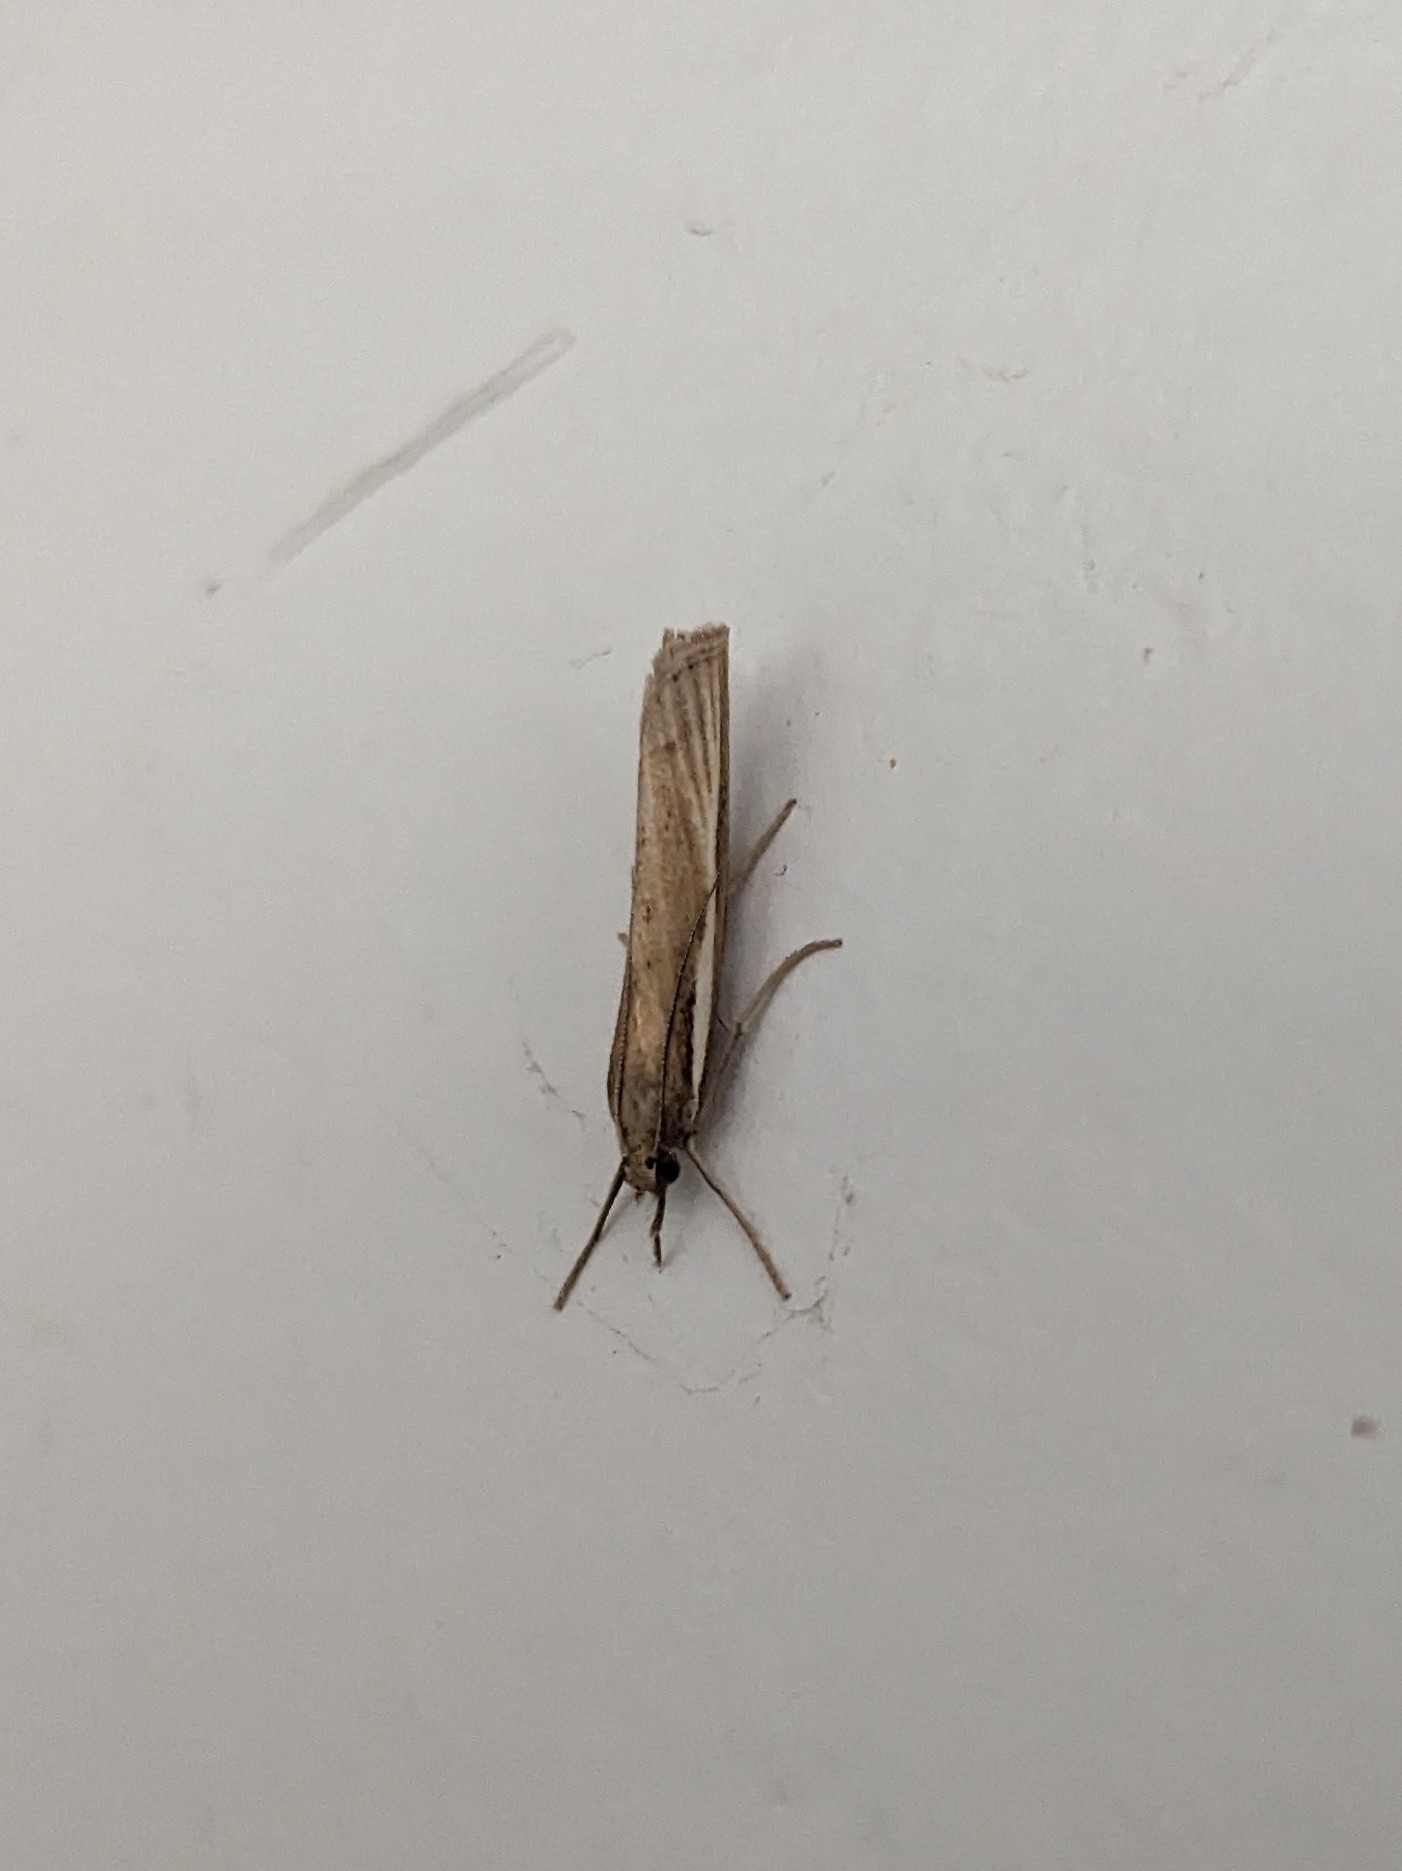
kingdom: Animalia
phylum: Arthropoda
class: Insecta
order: Lepidoptera
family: Crambidae
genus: Agriphila
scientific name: Agriphila tristellus
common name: Common grass-veneer
